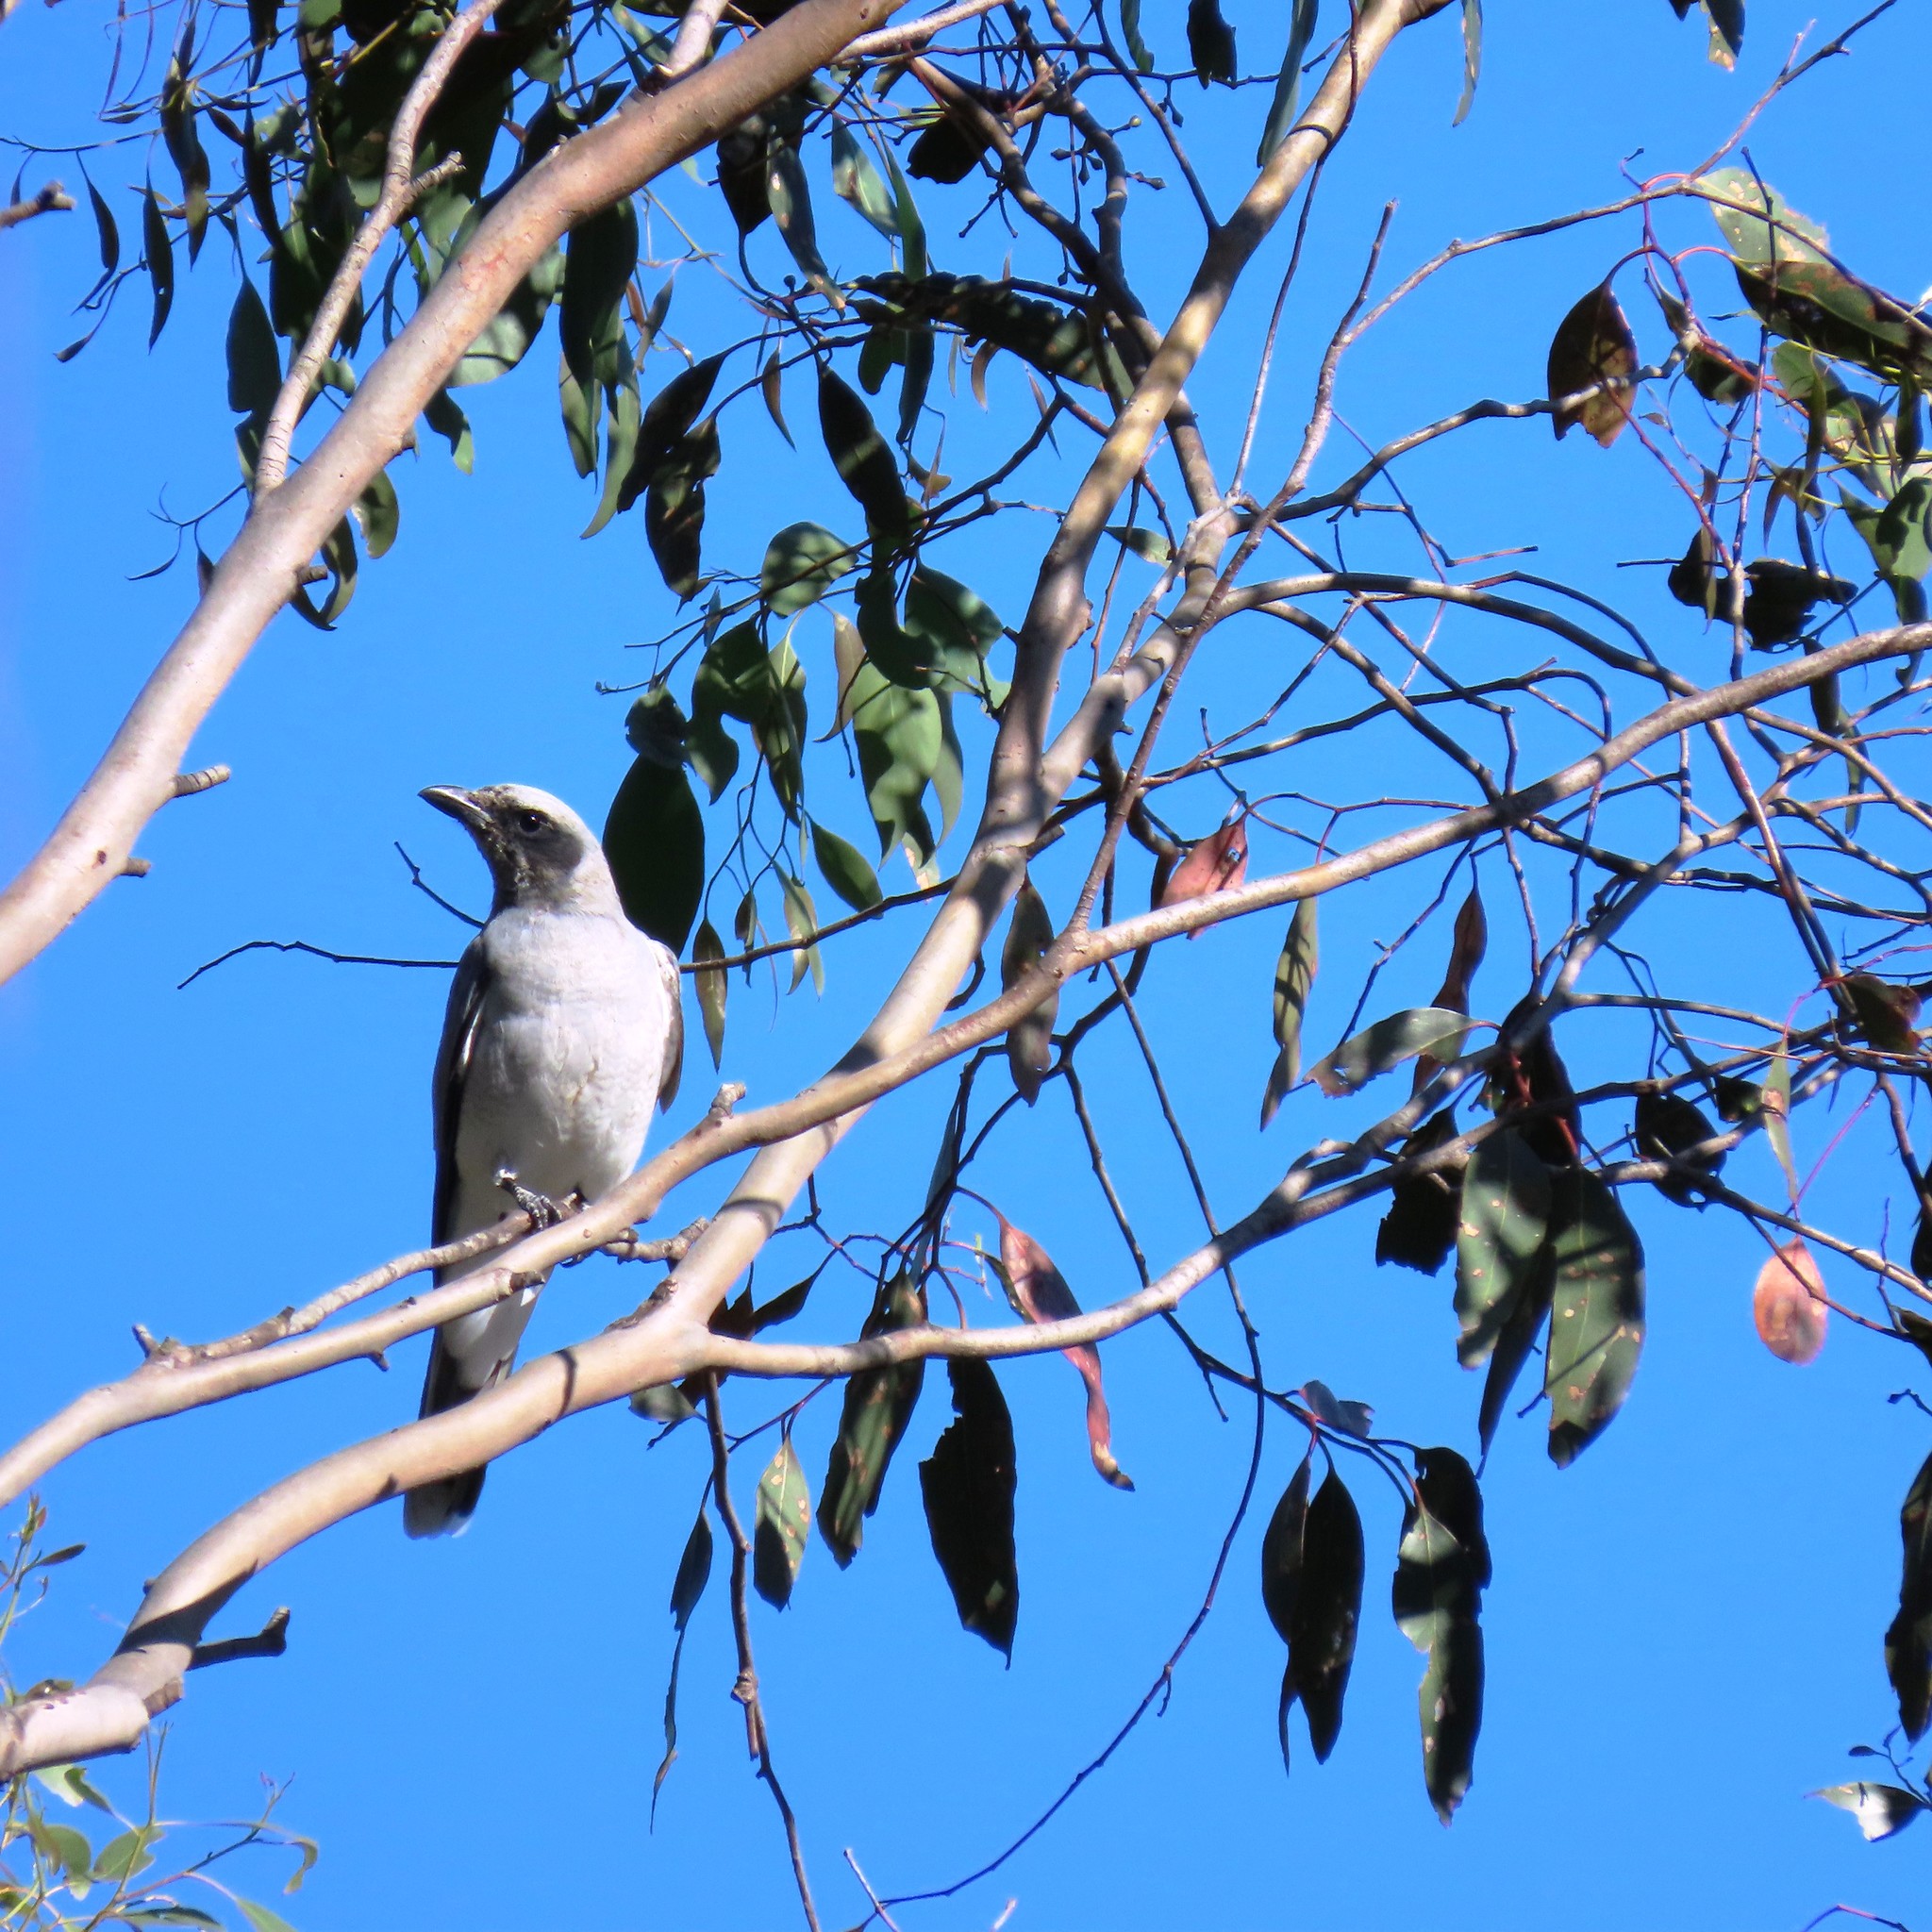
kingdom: Animalia
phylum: Chordata
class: Aves
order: Passeriformes
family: Campephagidae
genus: Coracina
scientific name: Coracina novaehollandiae
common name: Black-faced cuckooshrike
